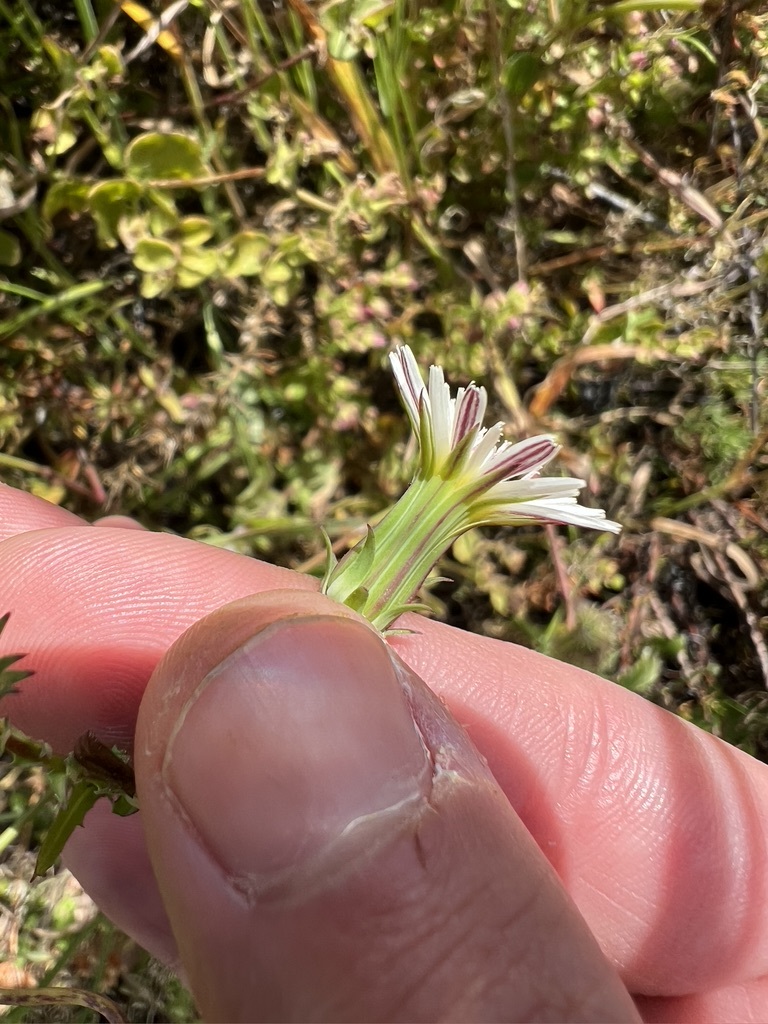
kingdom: Plantae
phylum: Tracheophyta
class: Magnoliopsida
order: Asterales
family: Asteraceae
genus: Rafinesquia
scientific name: Rafinesquia californica
